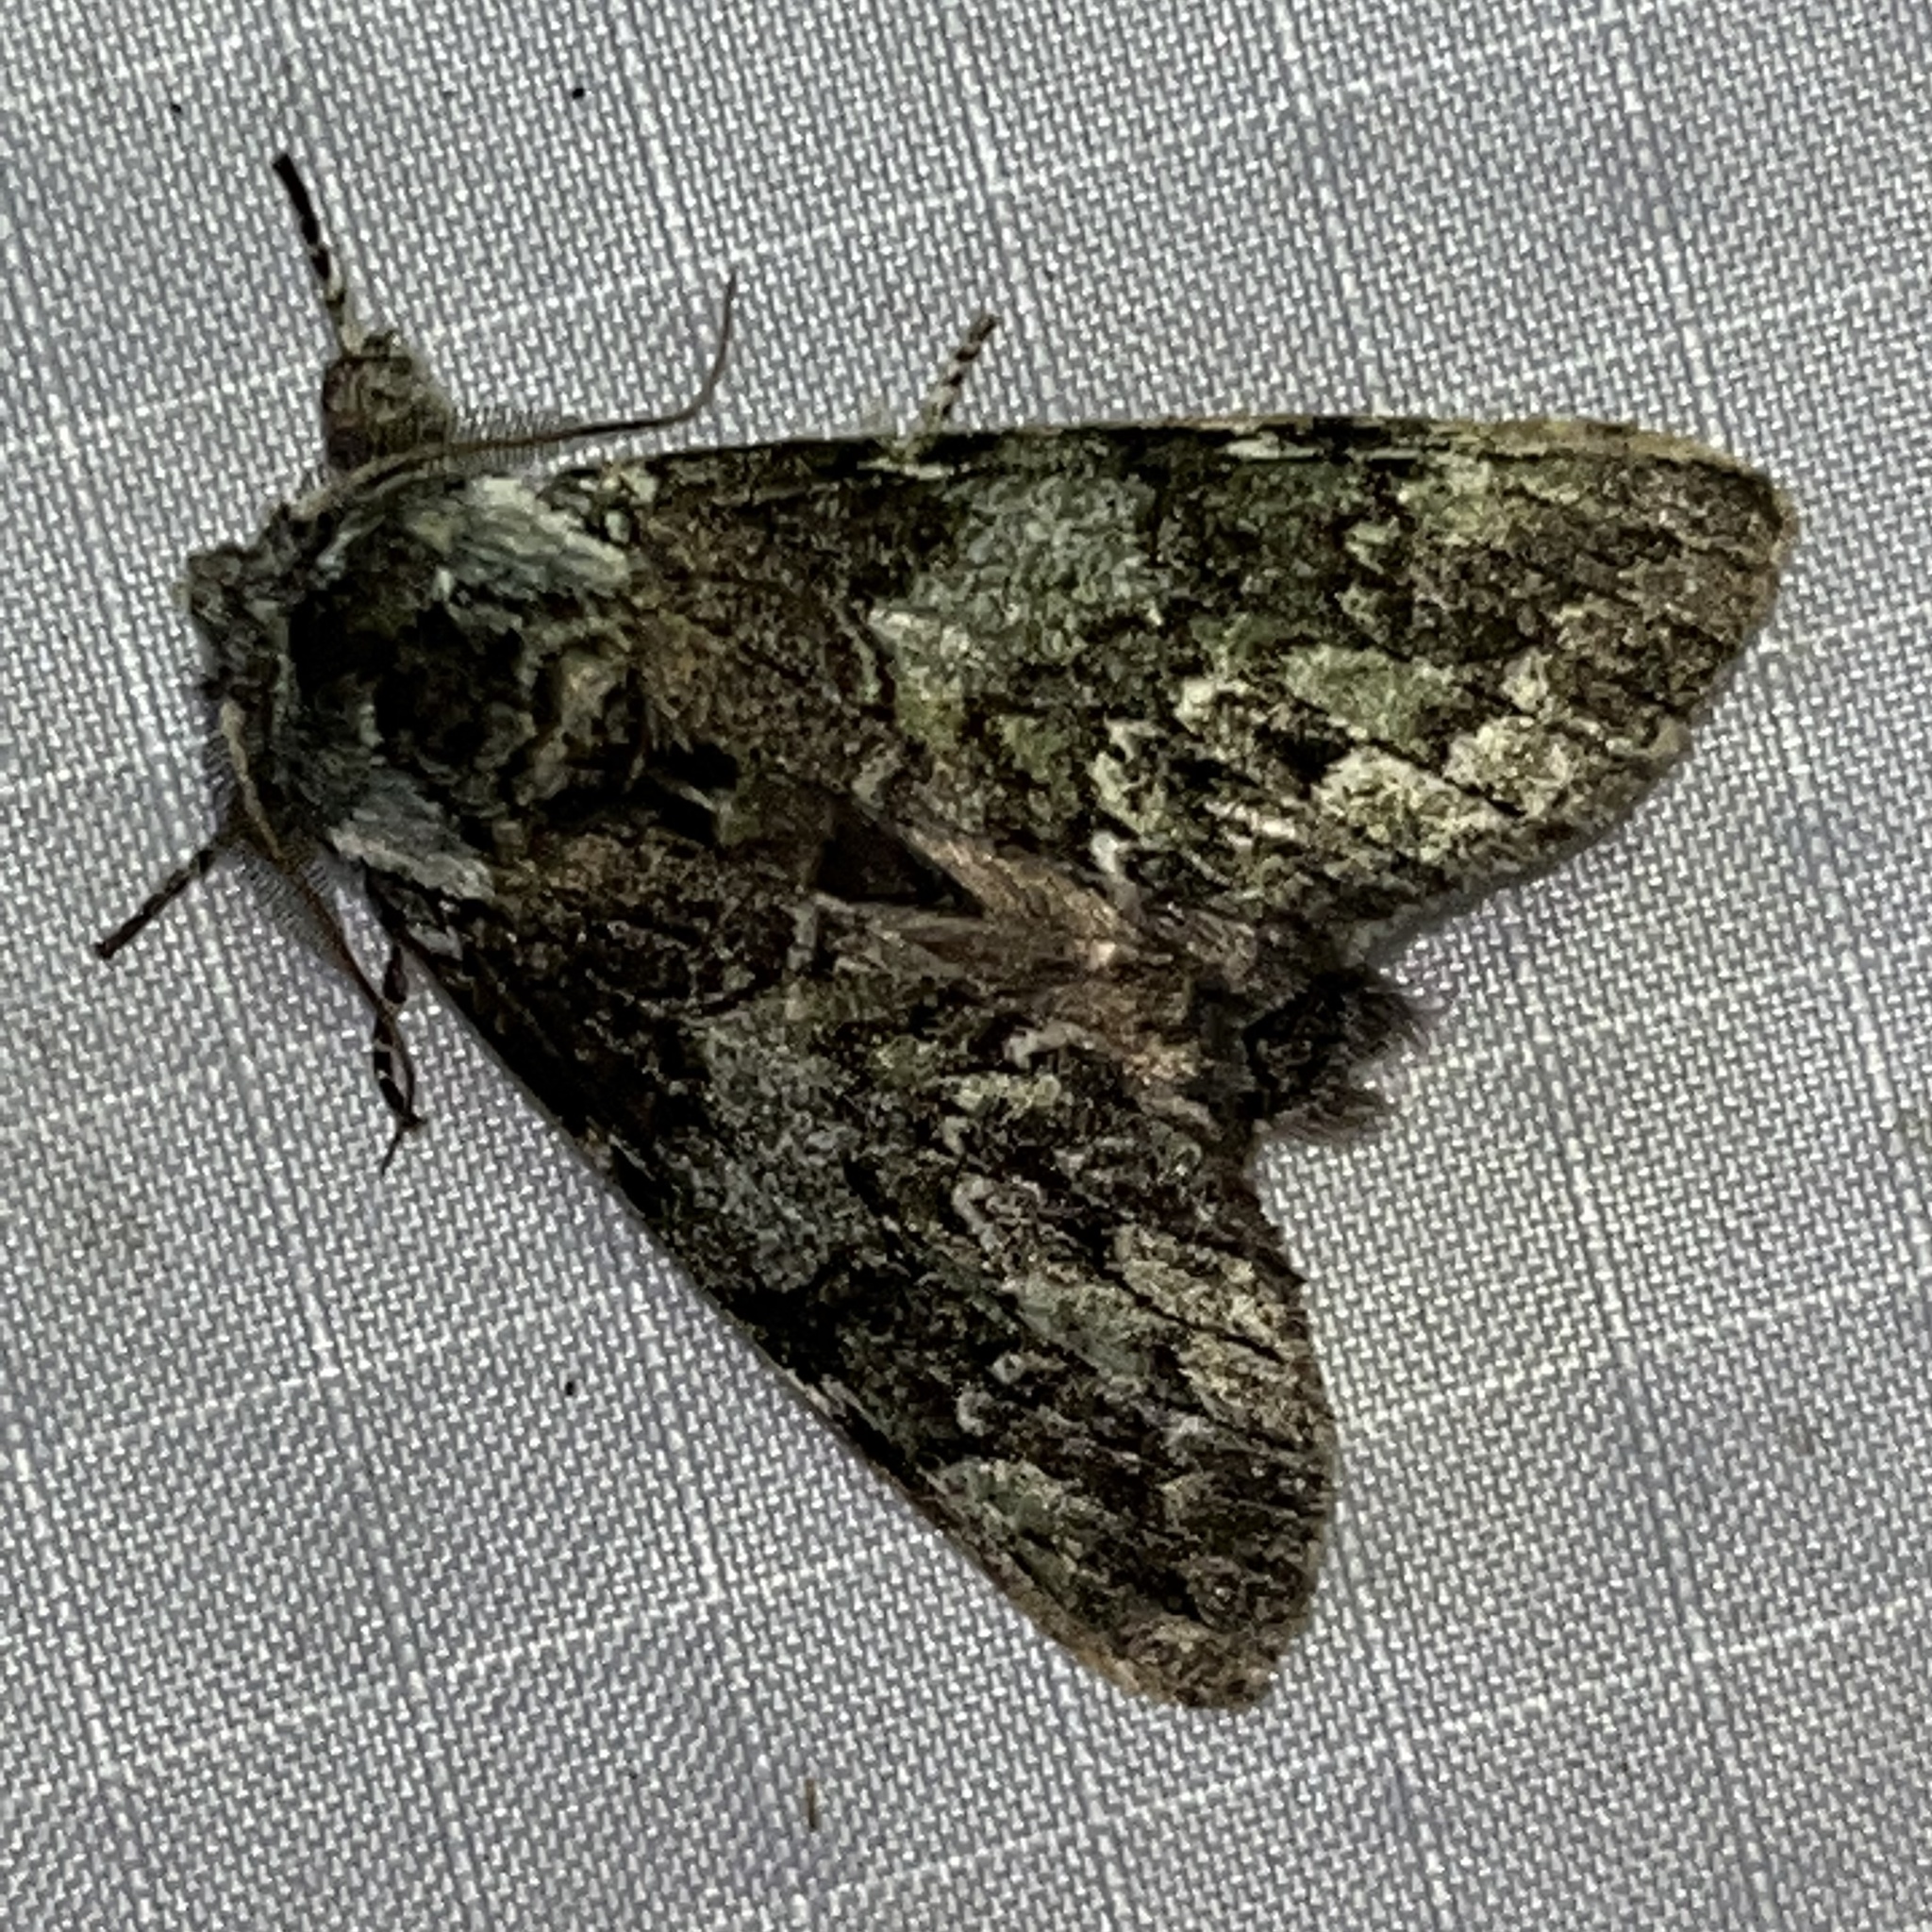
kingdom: Animalia
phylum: Arthropoda
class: Insecta
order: Lepidoptera
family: Notodontidae
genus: Macrurocampa
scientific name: Macrurocampa marthesia
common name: Mottled prominent
